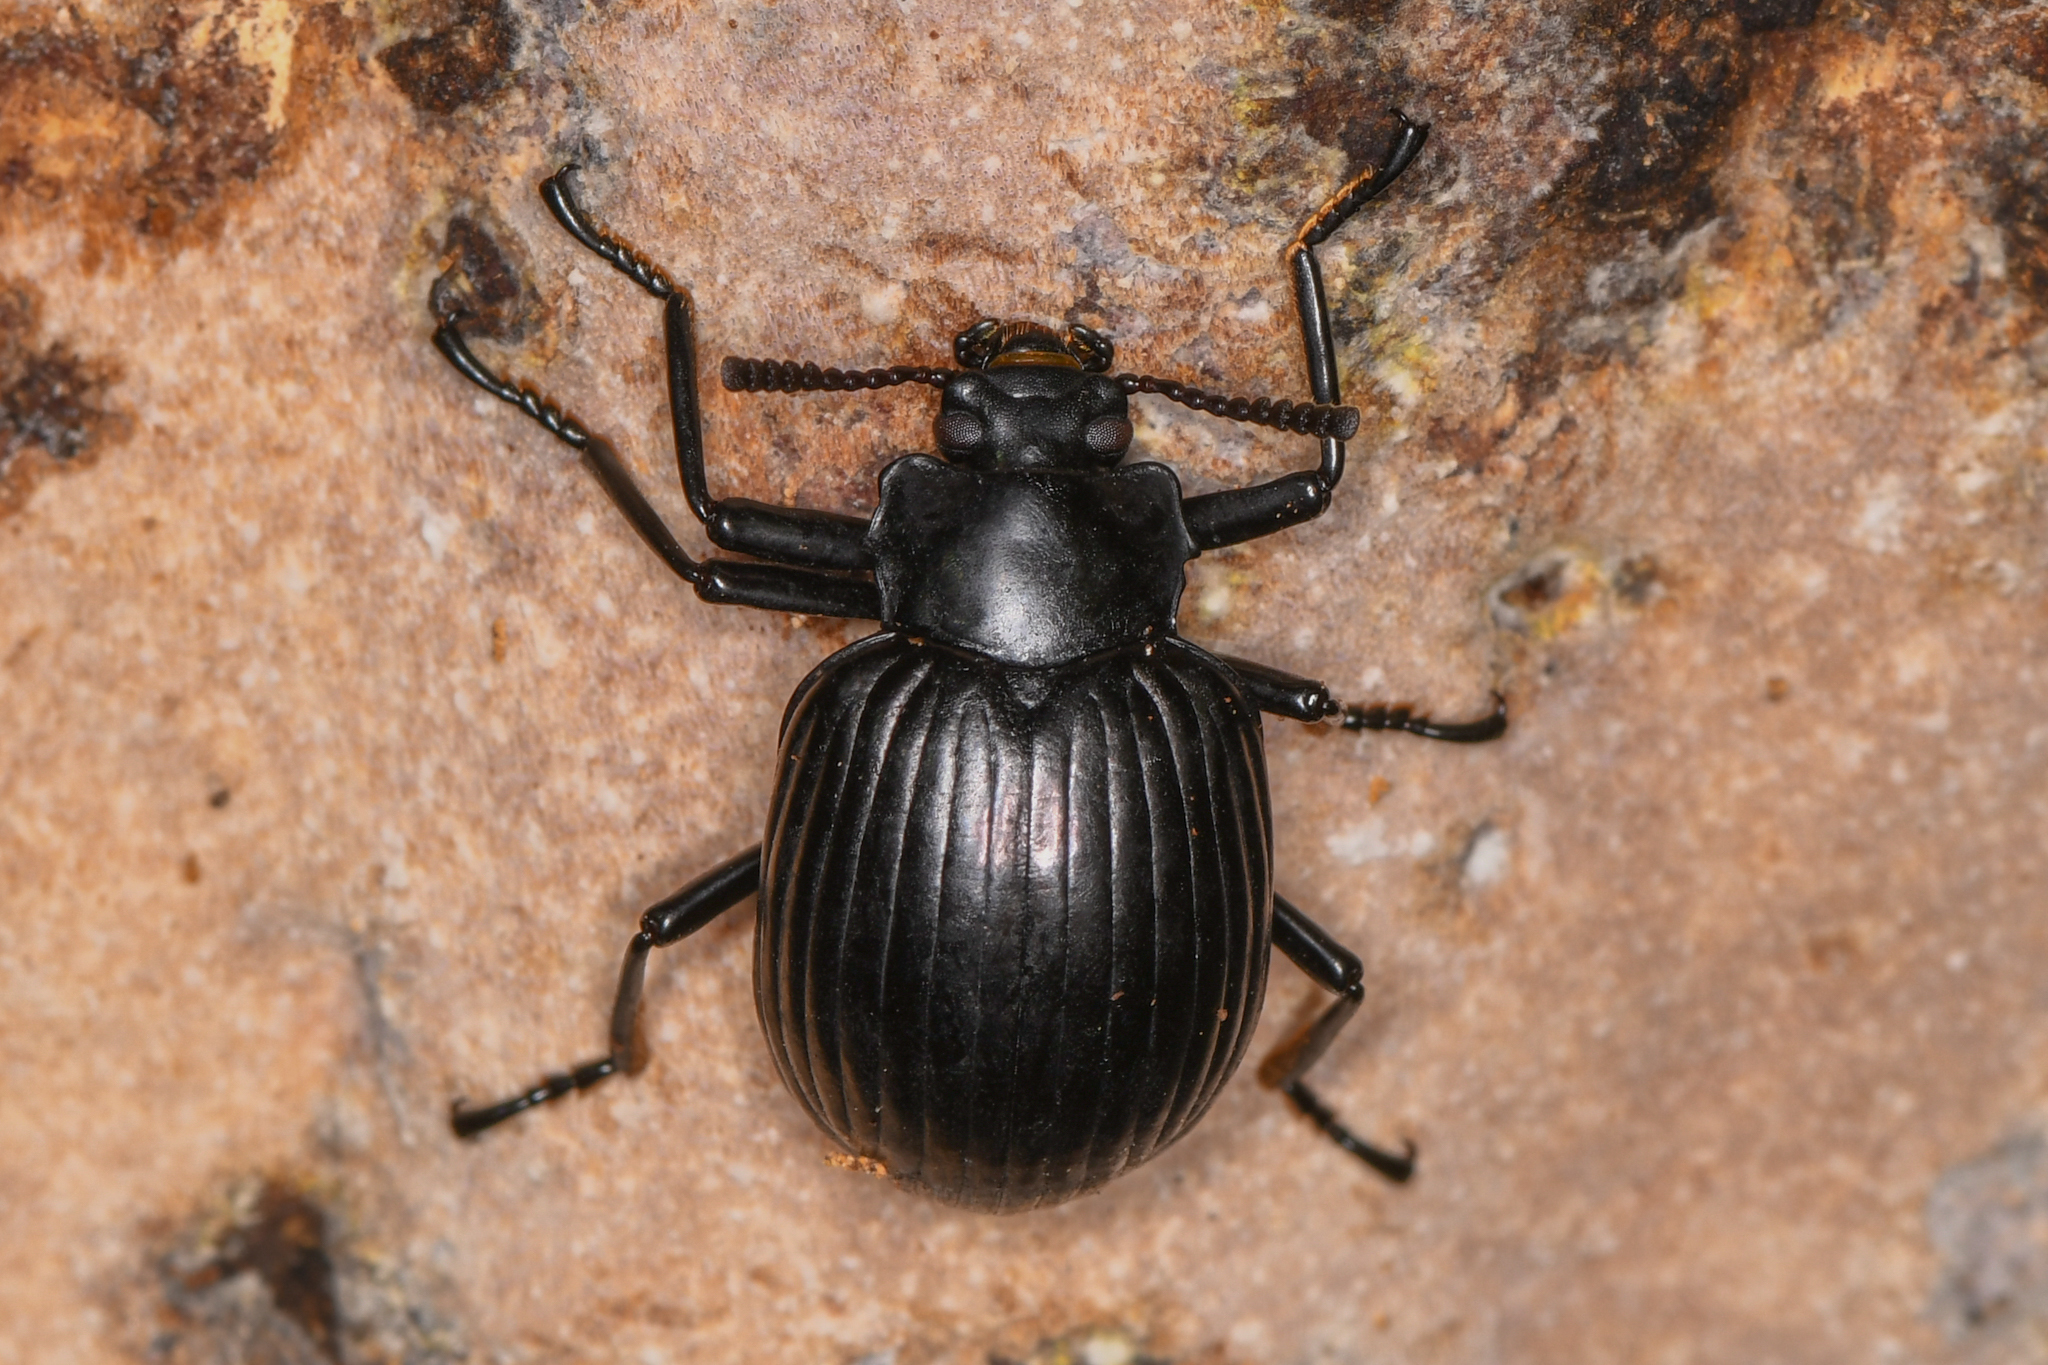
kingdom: Animalia
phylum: Arthropoda
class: Insecta
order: Coleoptera
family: Tenebrionidae
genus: Cyrtosoma
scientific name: Cyrtosoma denticolle
